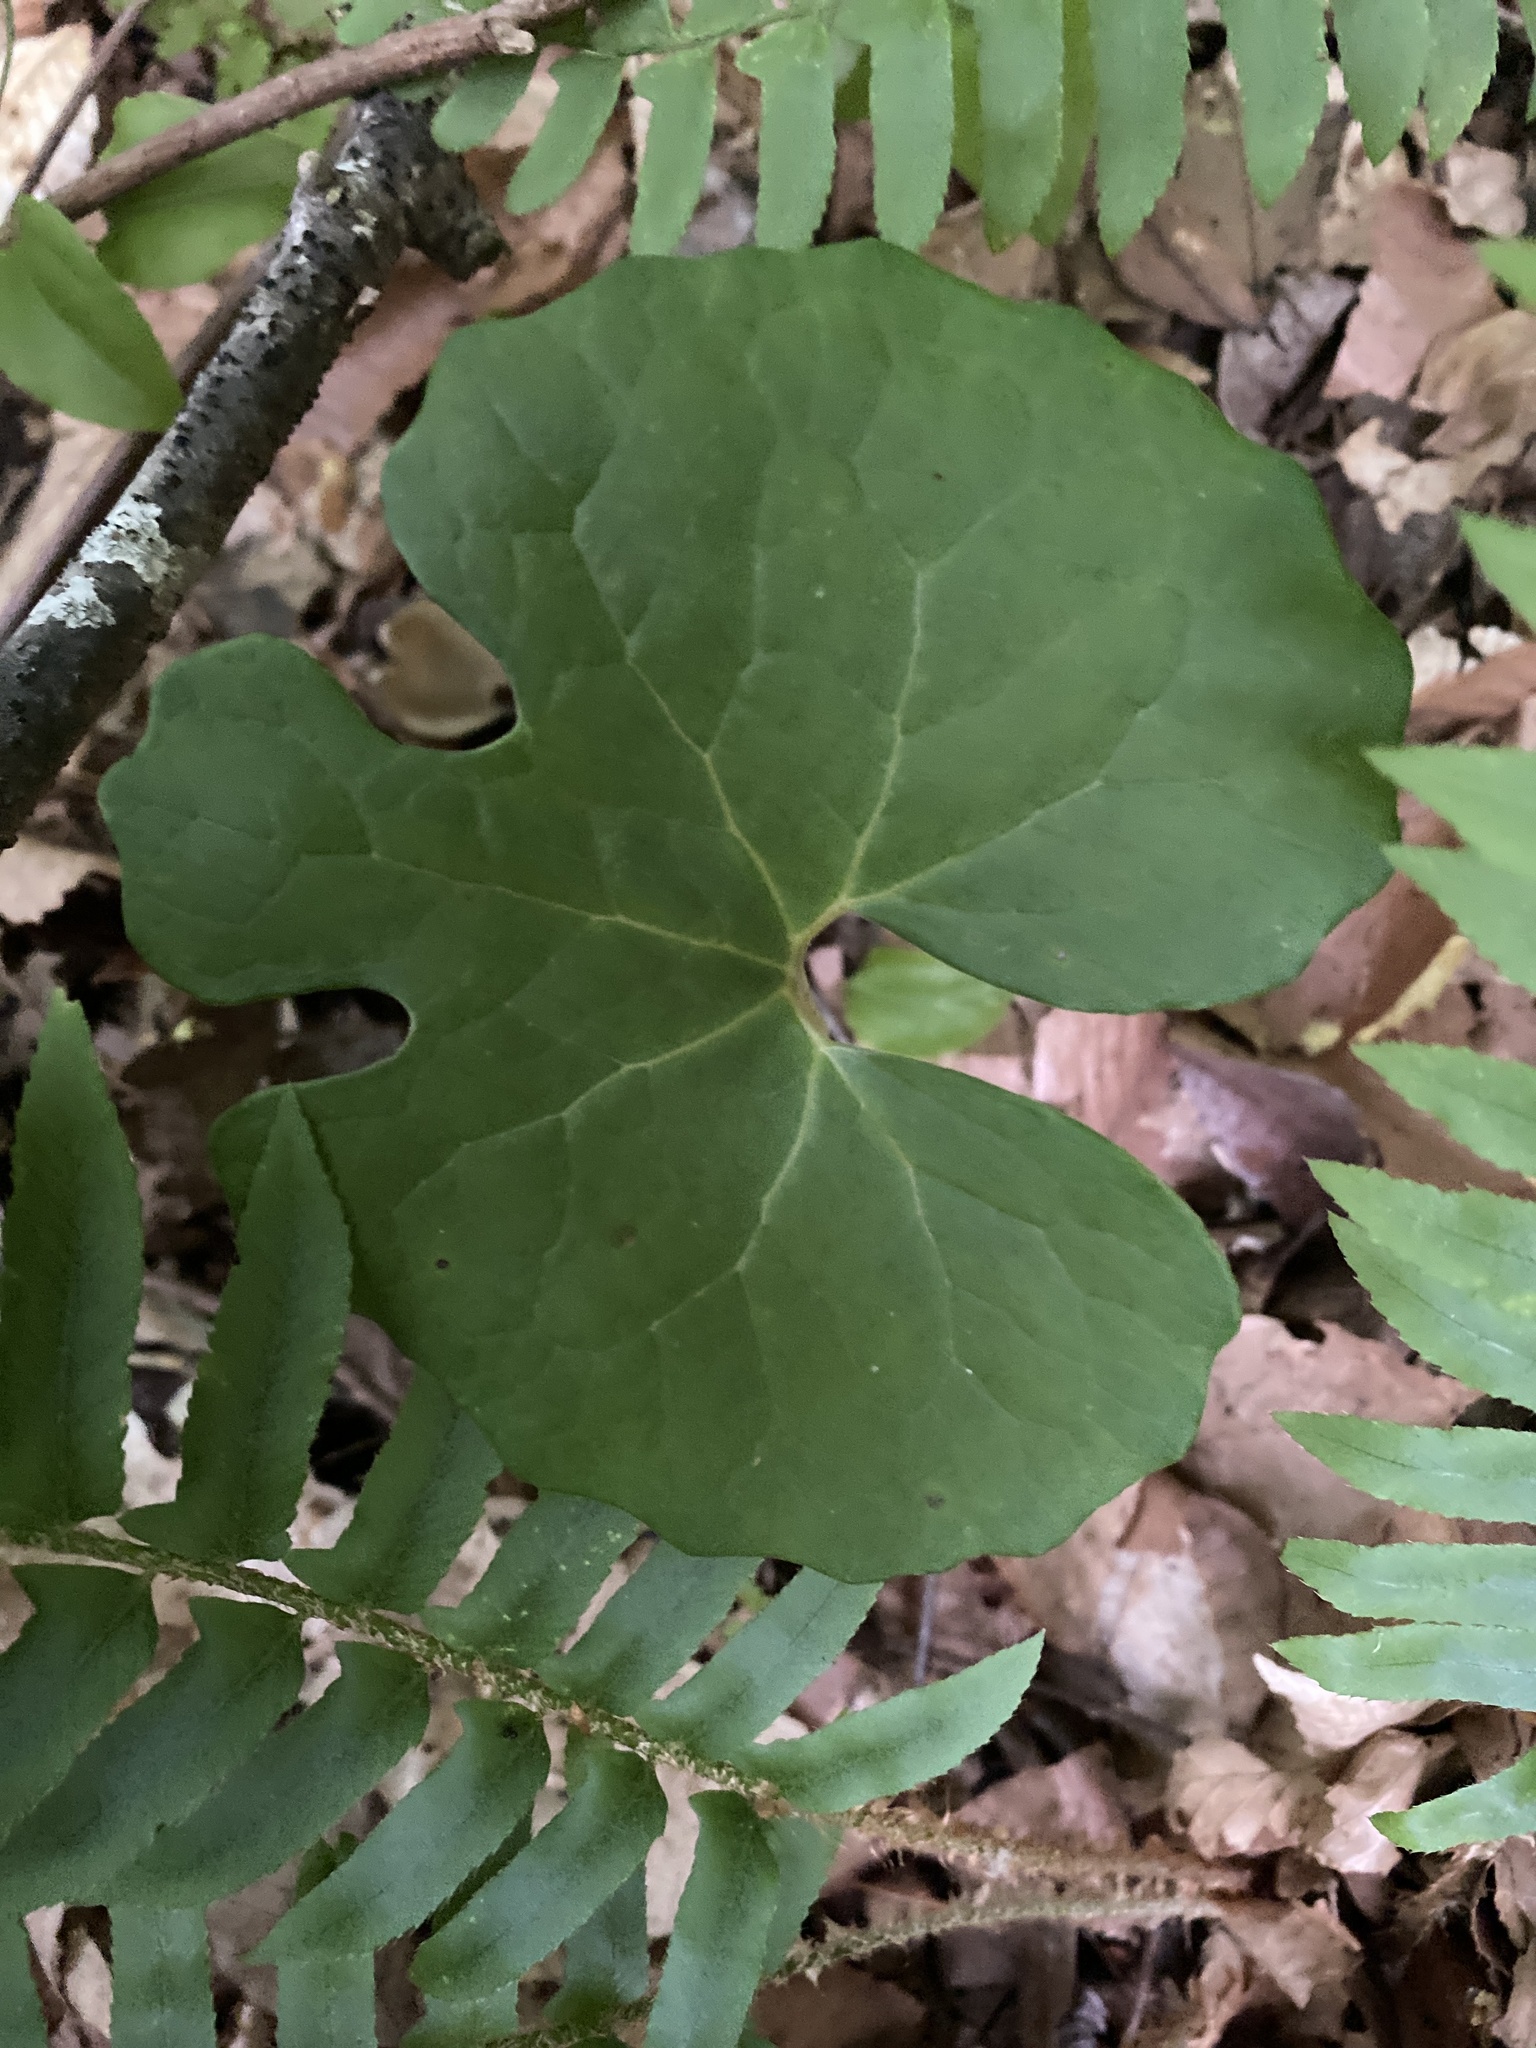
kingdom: Plantae
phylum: Tracheophyta
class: Magnoliopsida
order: Ranunculales
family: Papaveraceae
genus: Sanguinaria
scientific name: Sanguinaria canadensis
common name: Bloodroot
